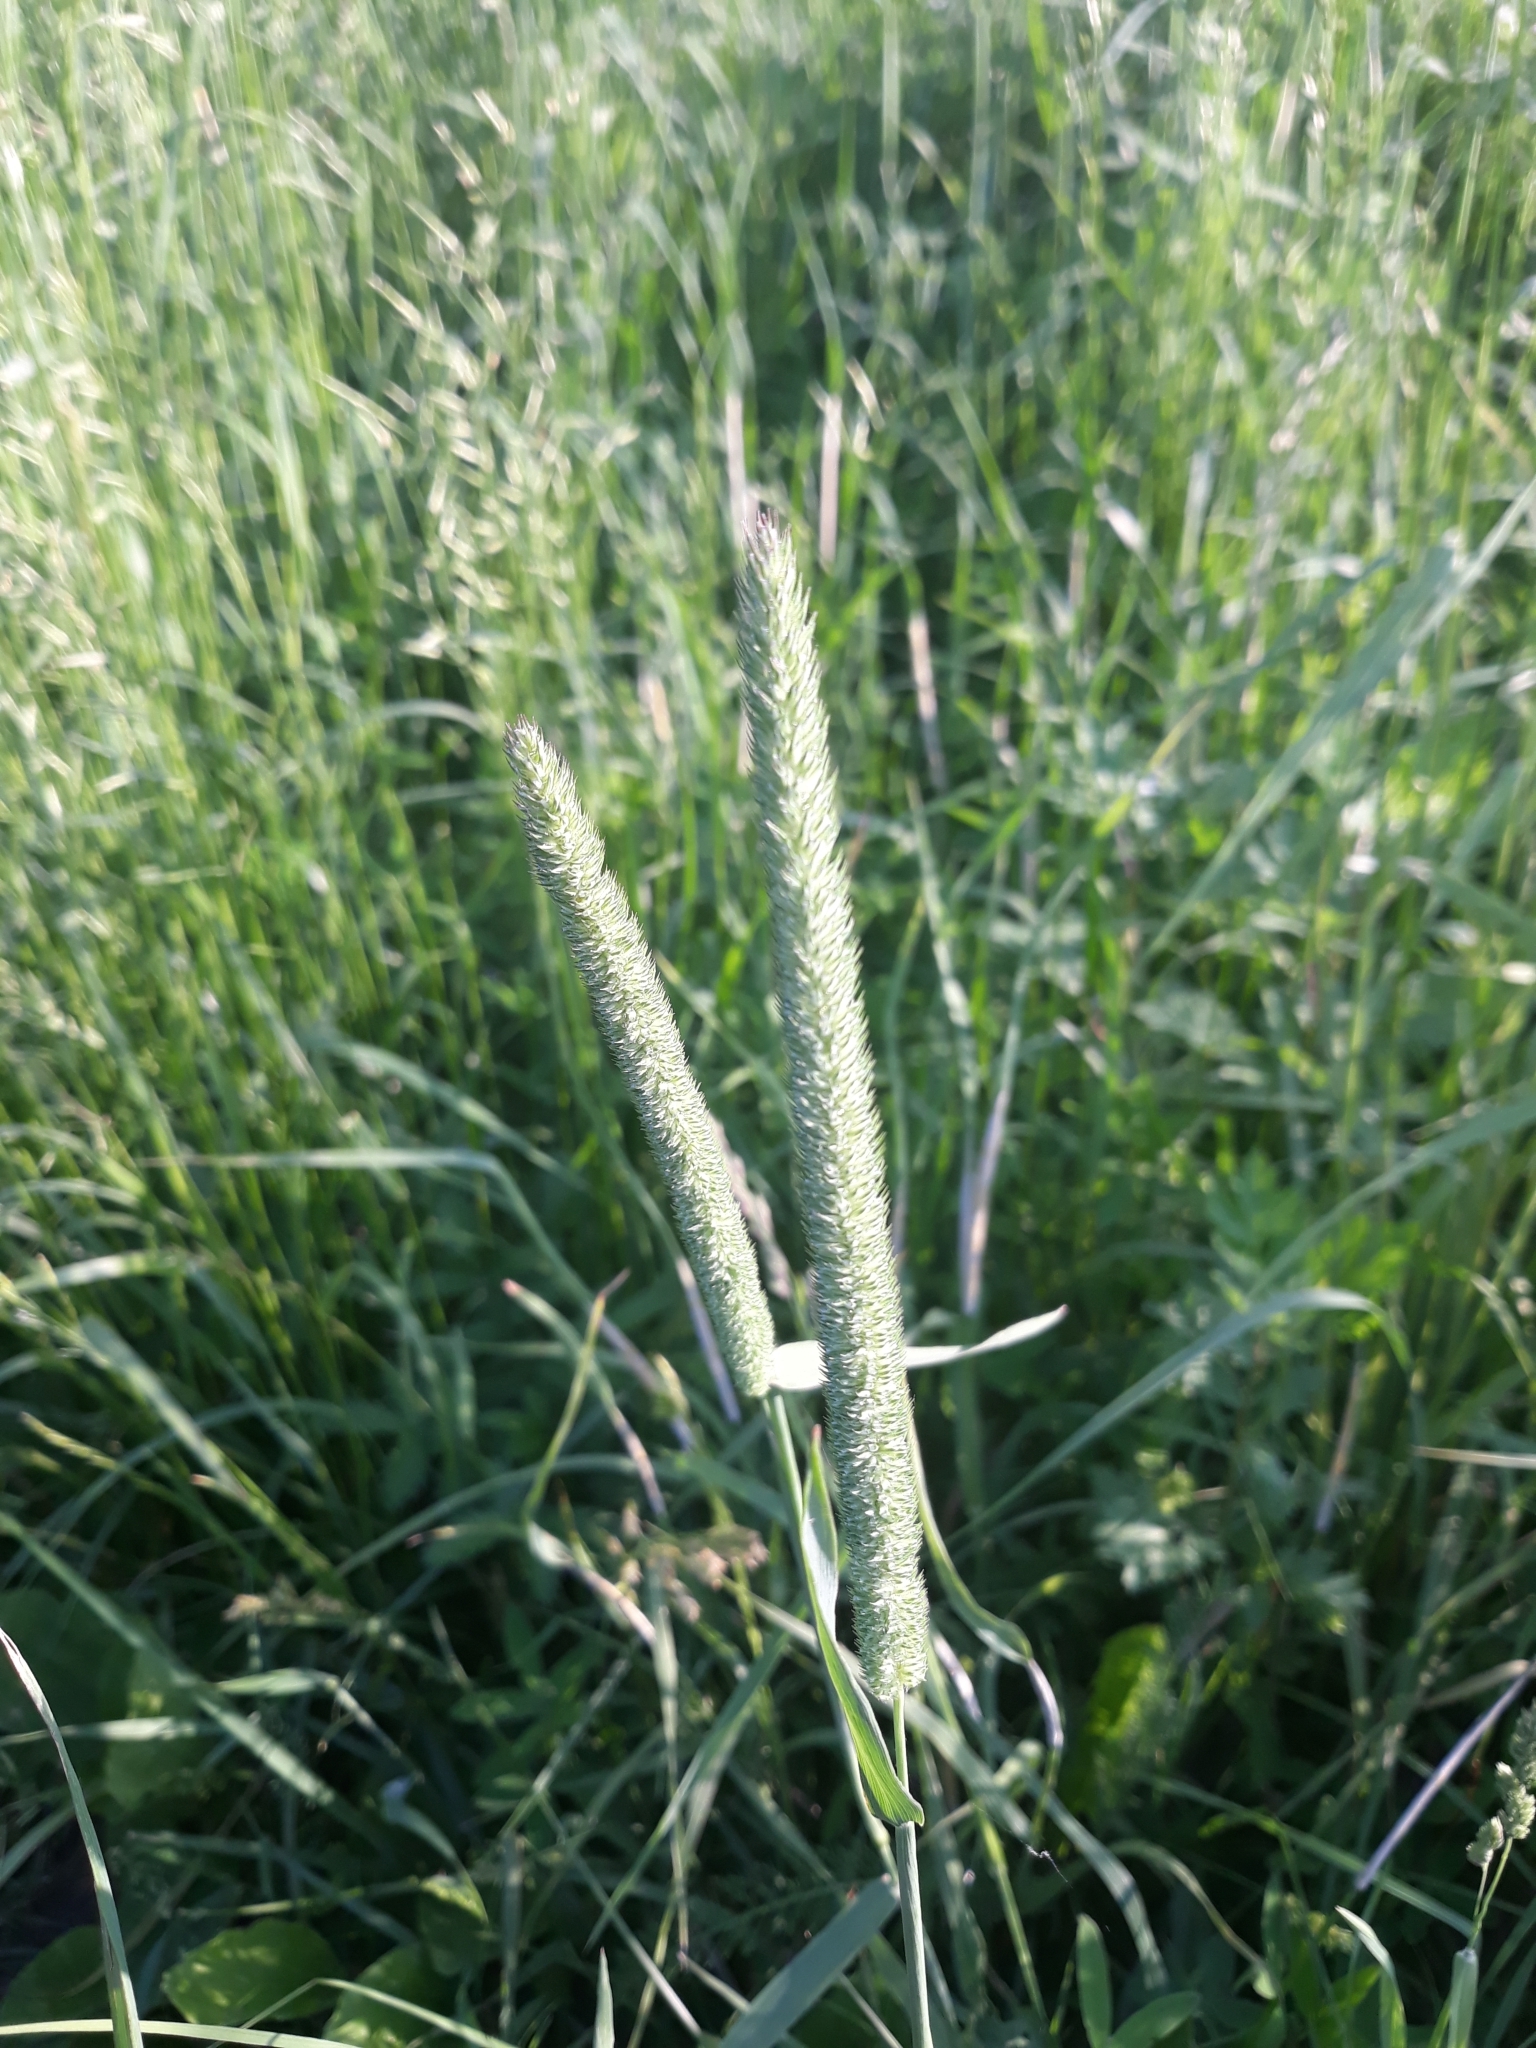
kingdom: Plantae
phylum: Tracheophyta
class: Liliopsida
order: Poales
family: Poaceae
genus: Phleum
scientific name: Phleum pratense
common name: Timothy grass
